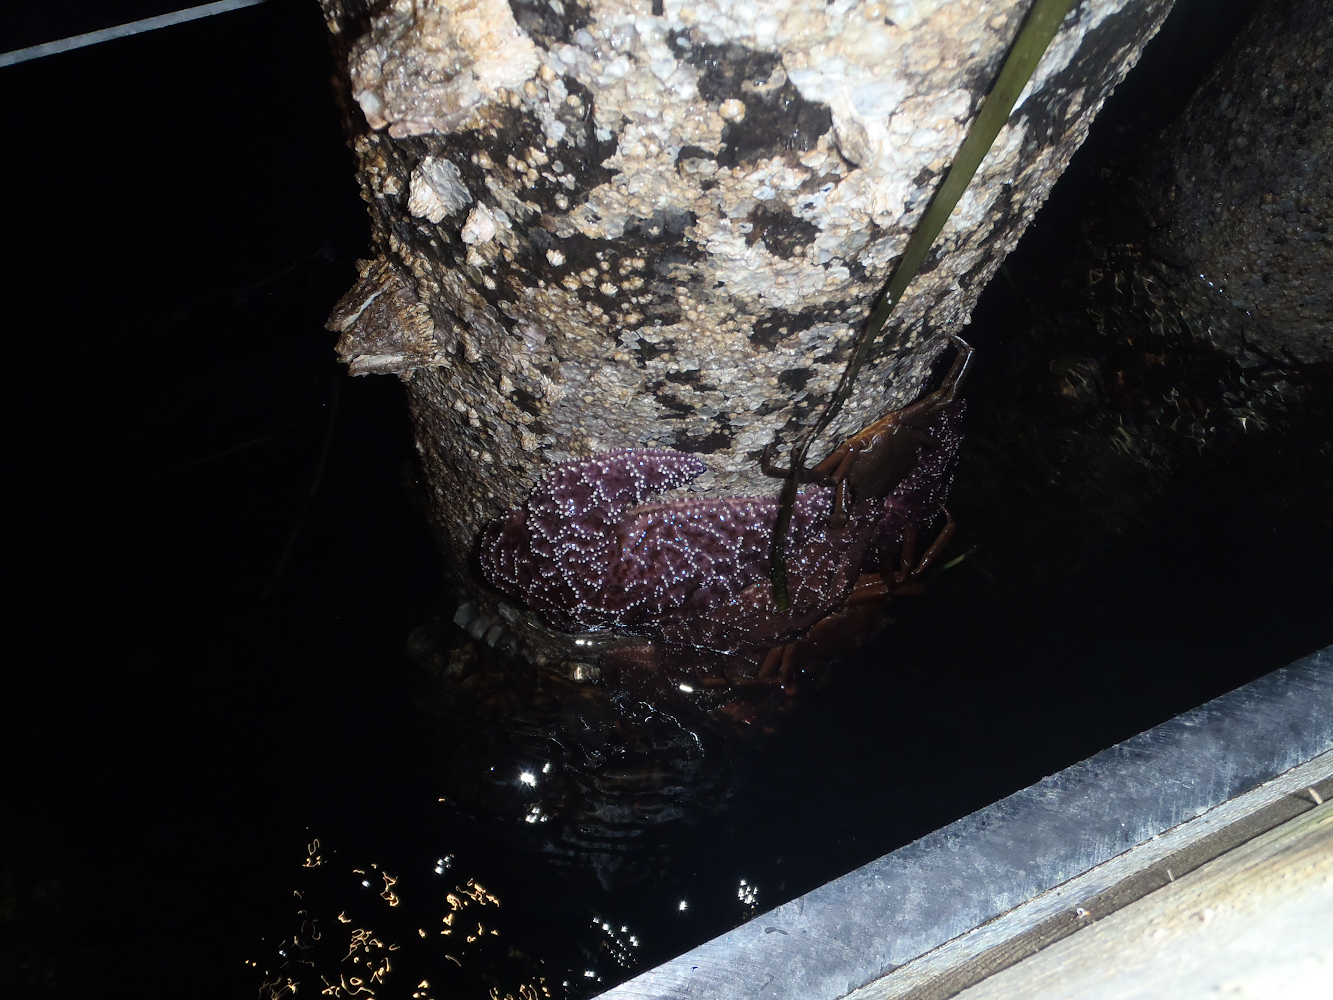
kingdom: Animalia
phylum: Echinodermata
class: Asteroidea
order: Forcipulatida
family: Asteriidae
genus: Pisaster
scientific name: Pisaster ochraceus
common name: Ochre stars
